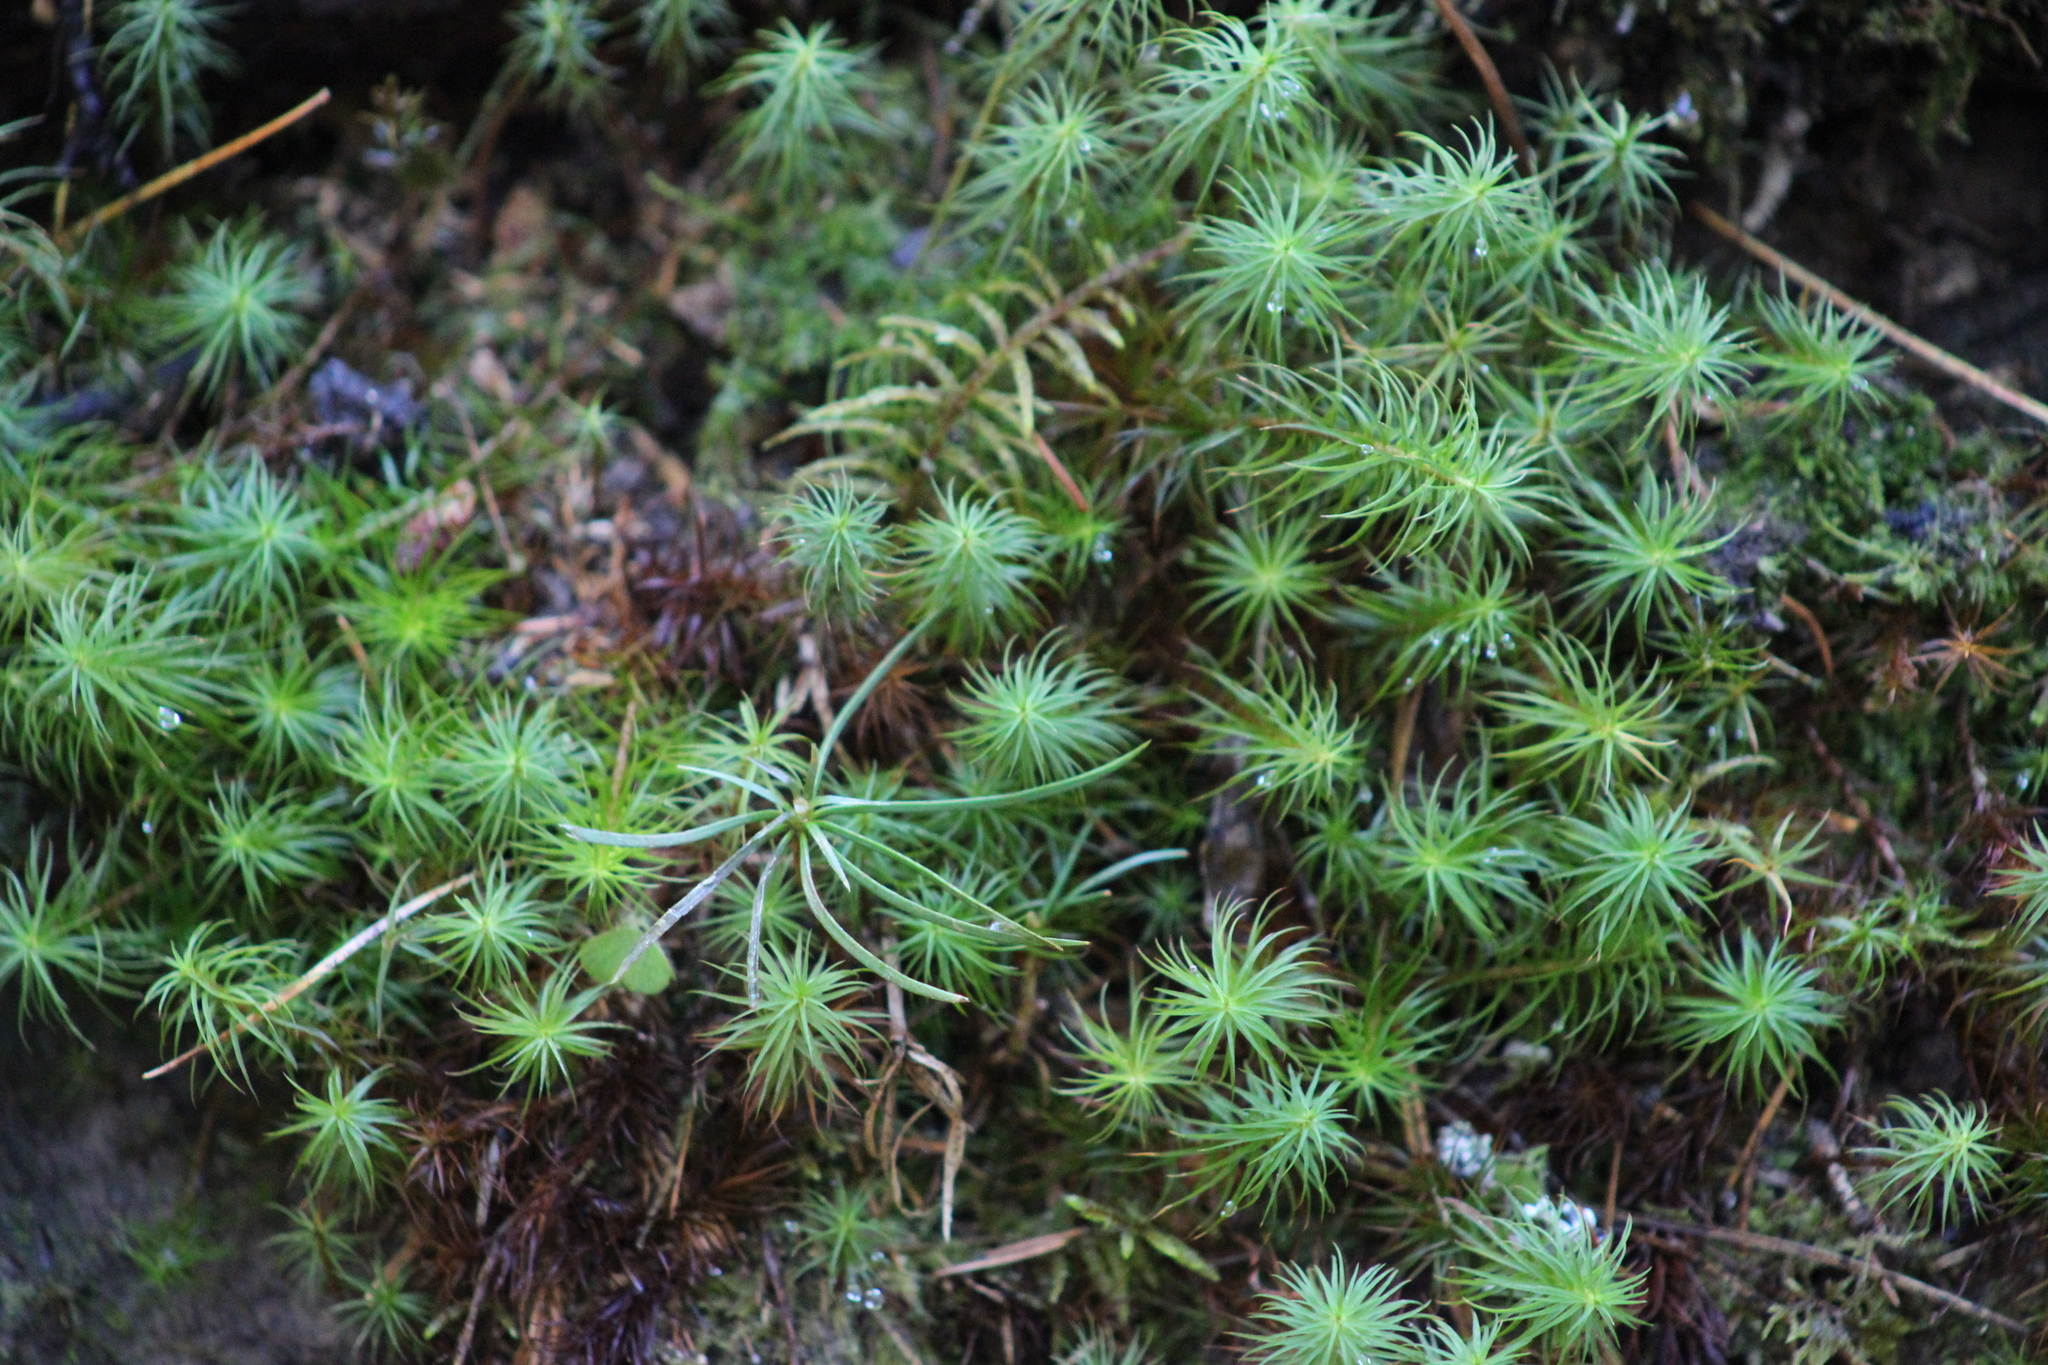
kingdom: Plantae
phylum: Bryophyta
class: Polytrichopsida
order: Polytrichales
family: Polytrichaceae
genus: Polytrichum
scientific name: Polytrichum commune
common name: Common haircap
